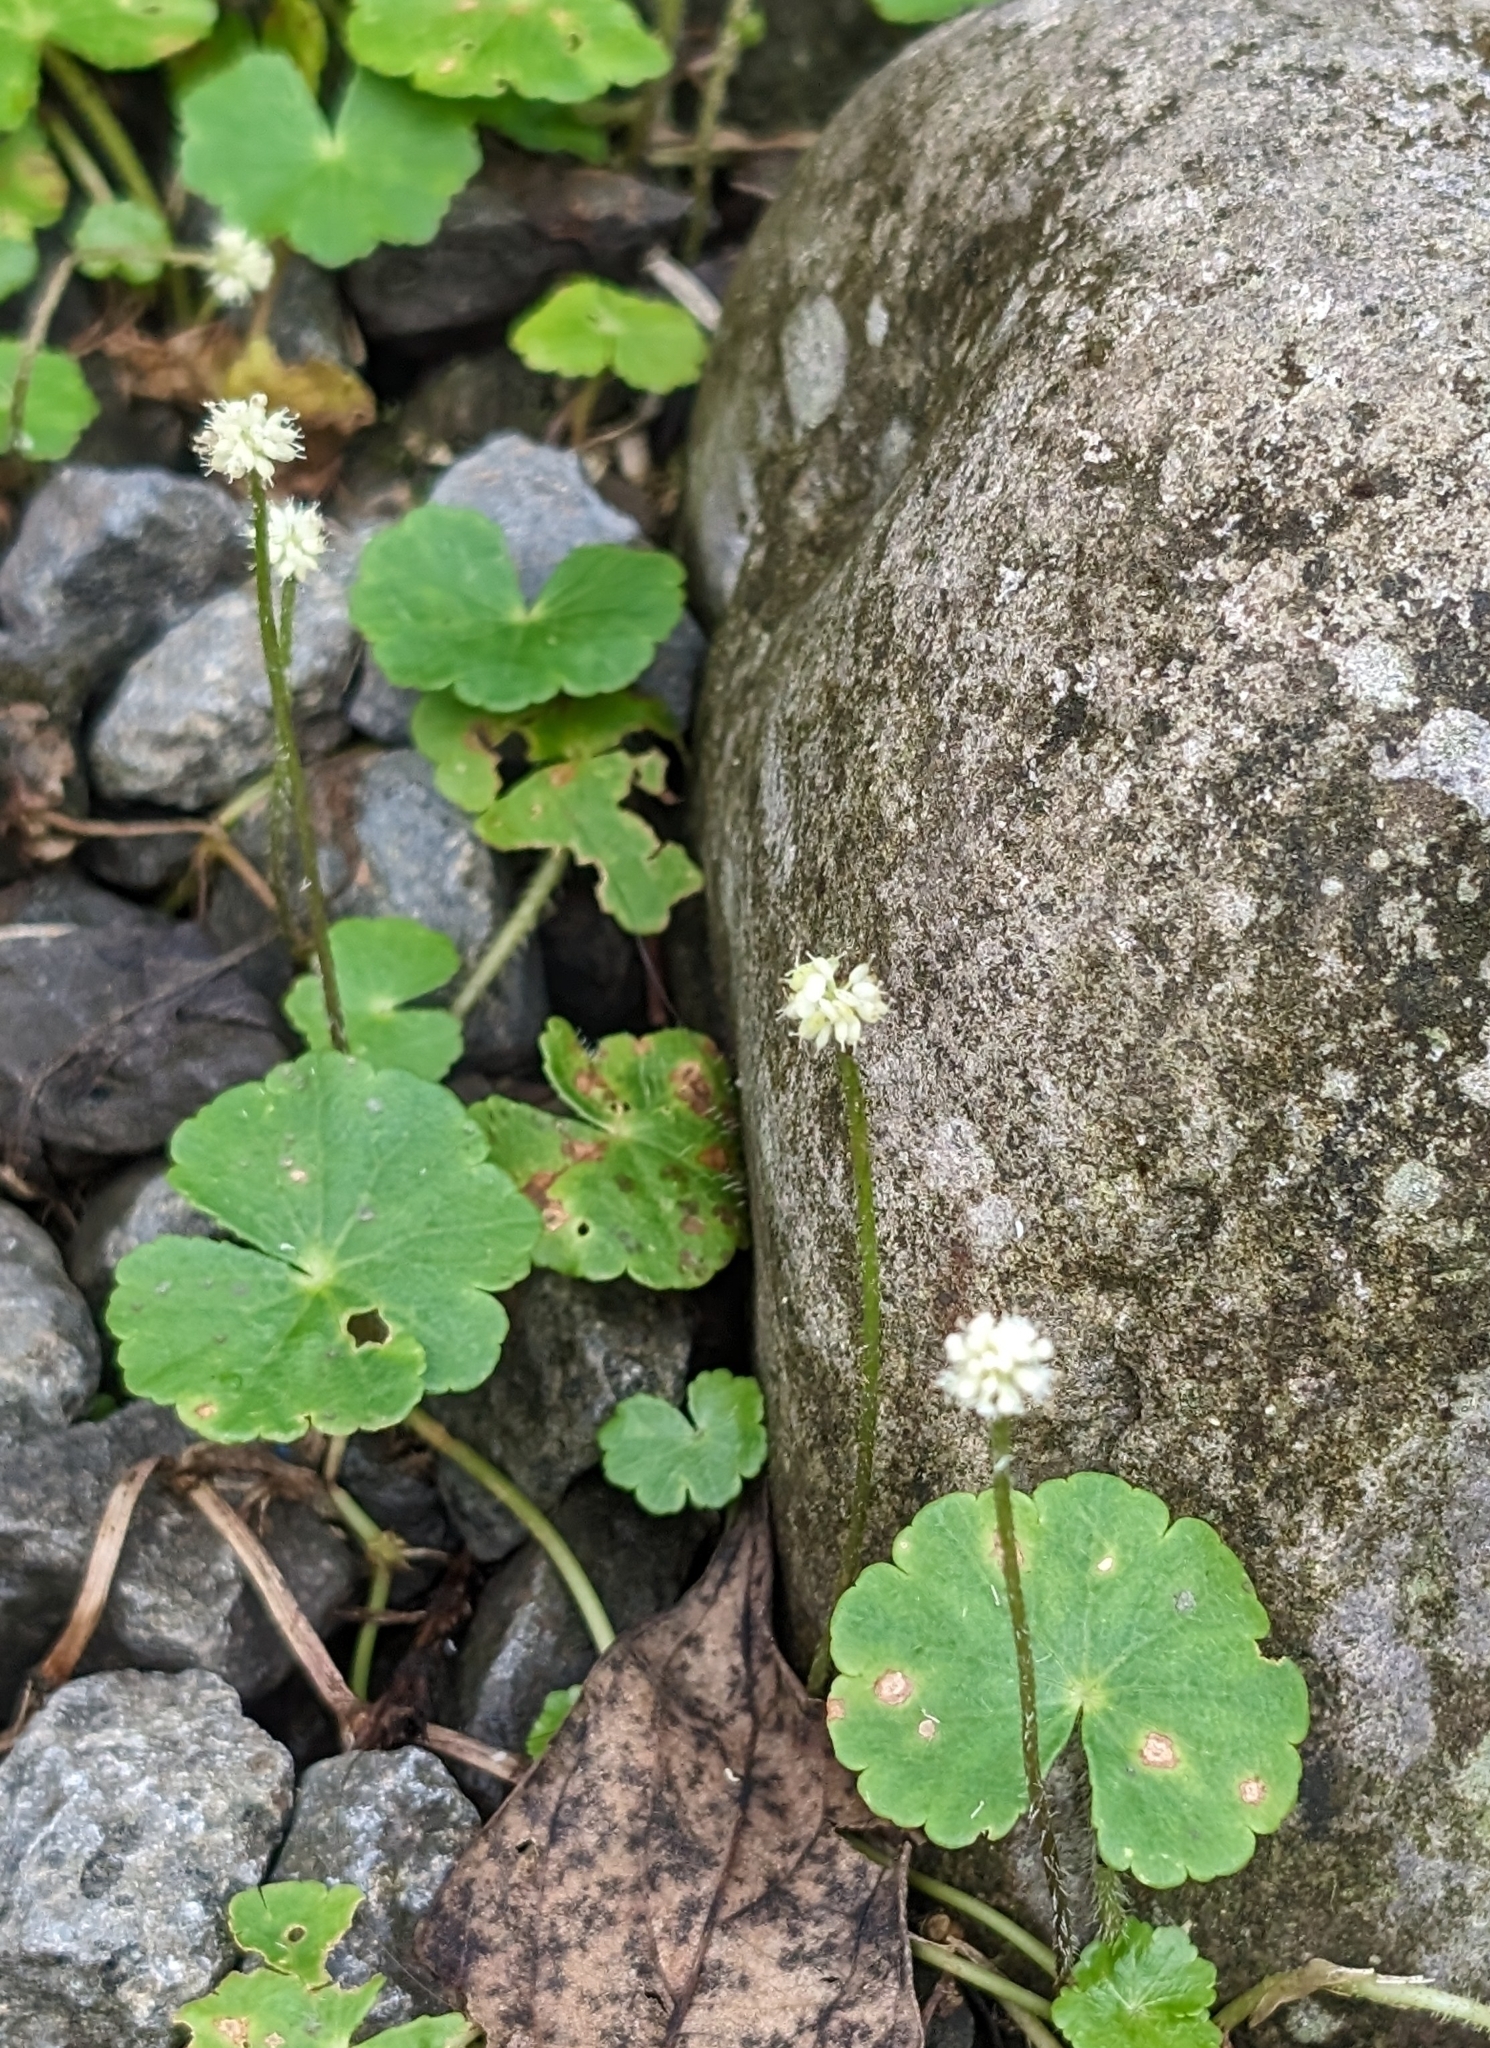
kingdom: Plantae
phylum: Tracheophyta
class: Magnoliopsida
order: Apiales
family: Araliaceae
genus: Hydrocotyle
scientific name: Hydrocotyle leucocephala
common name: Brazilian pennywort
